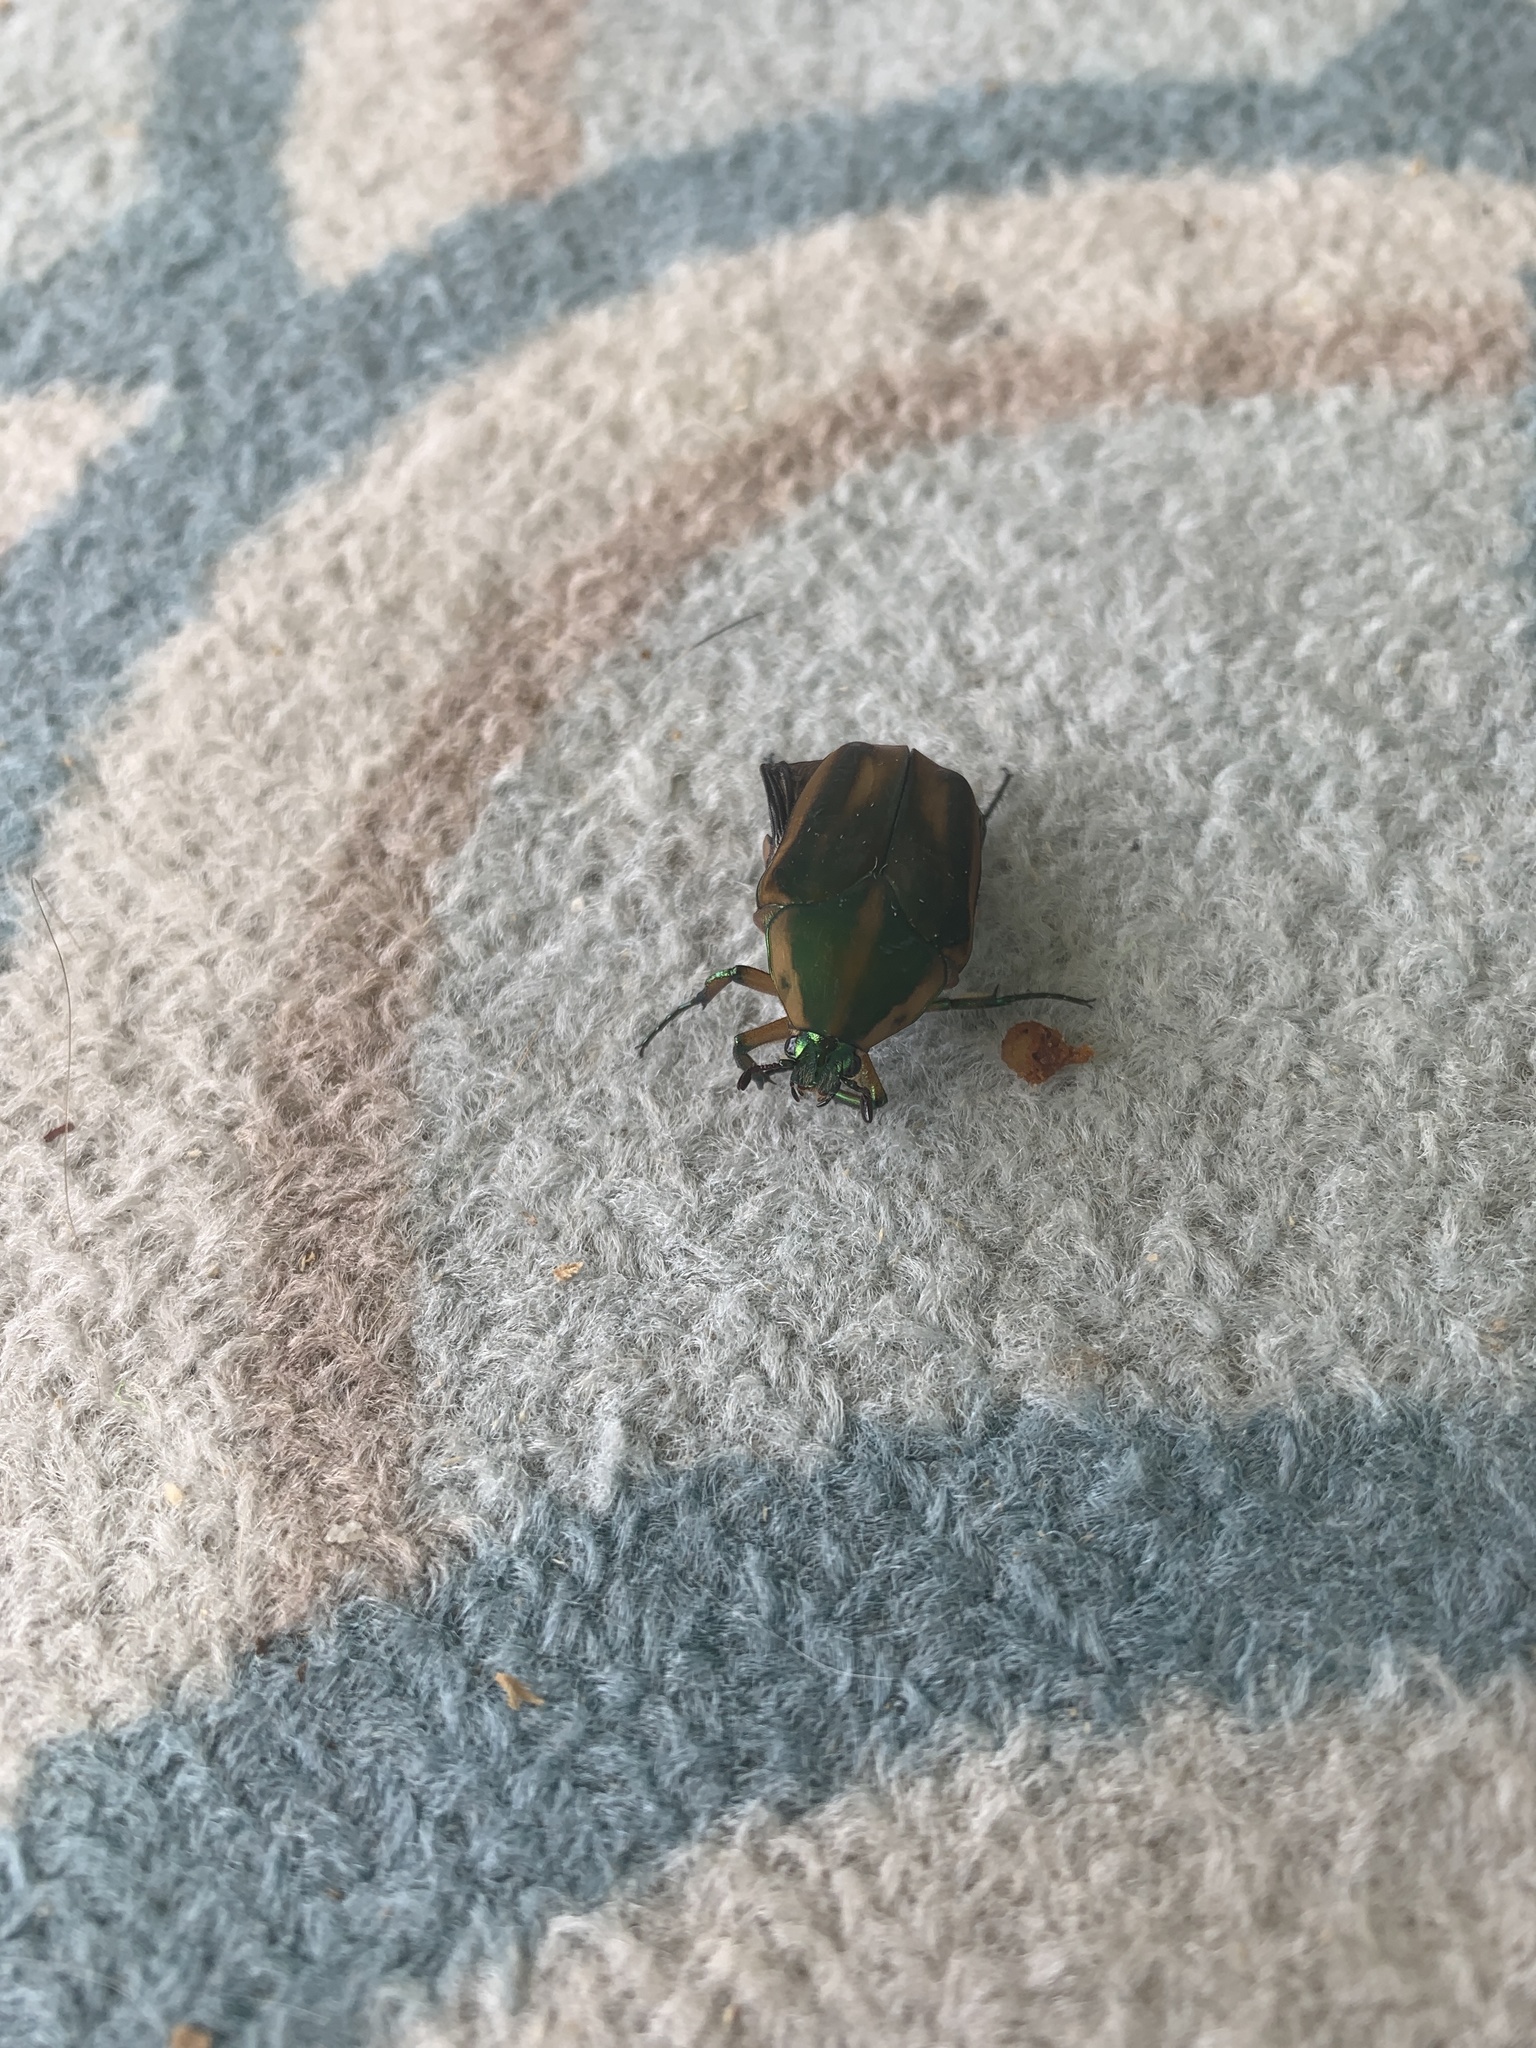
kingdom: Animalia
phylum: Arthropoda
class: Insecta
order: Coleoptera
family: Scarabaeidae
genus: Cotinis
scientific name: Cotinis nitida
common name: Common green june beetle
